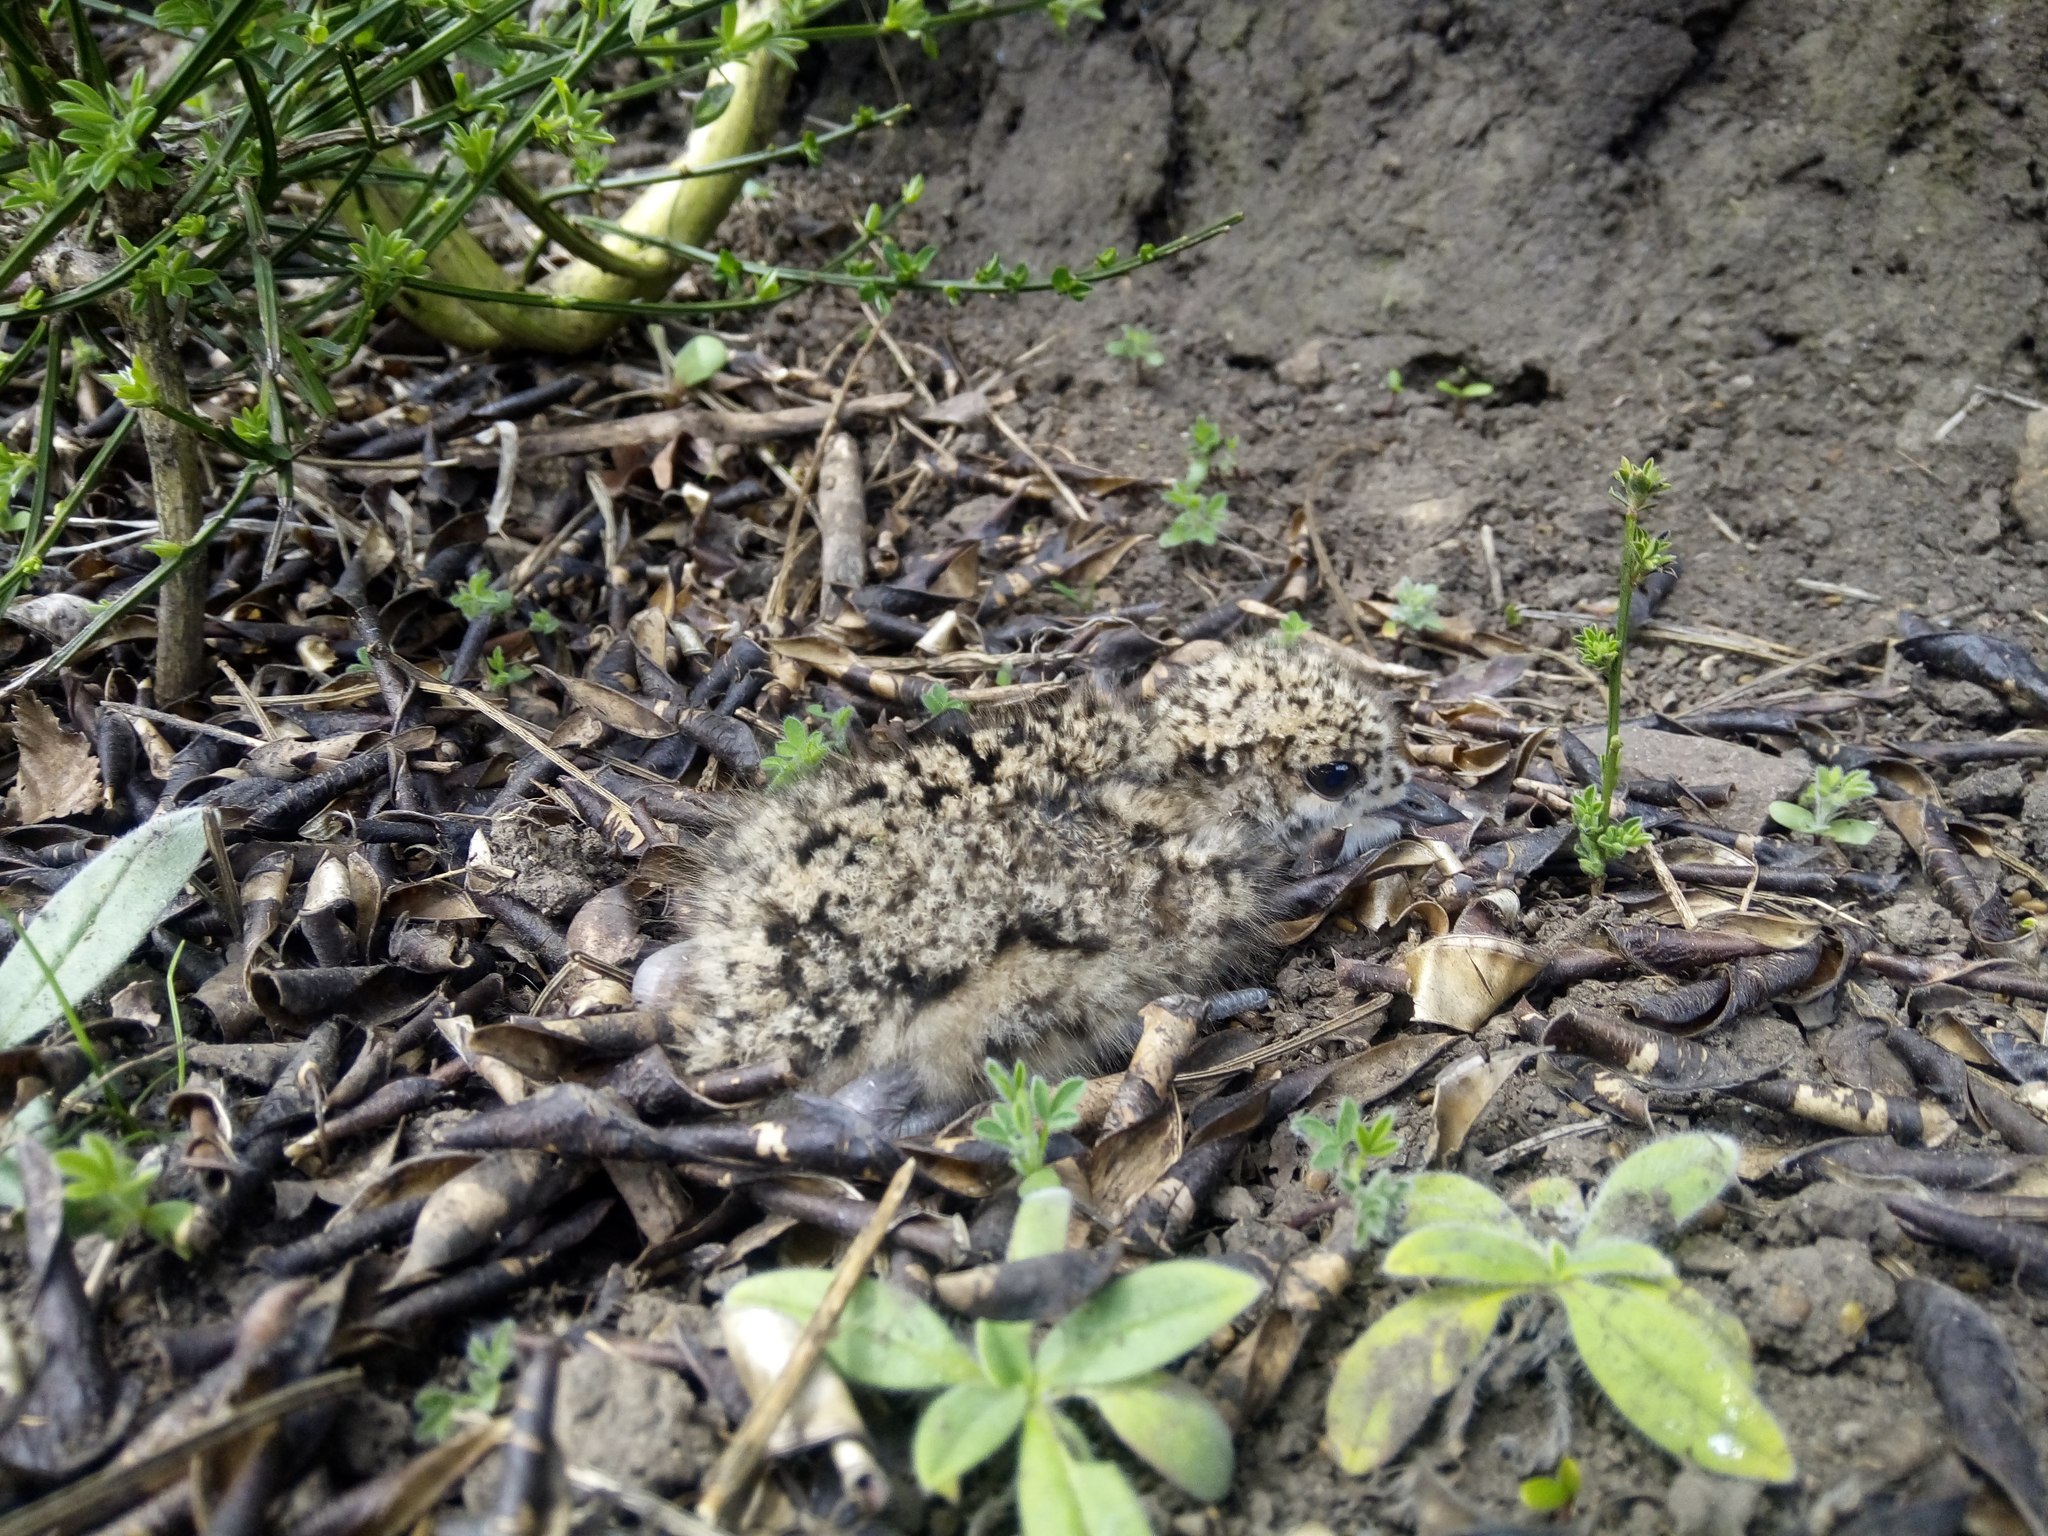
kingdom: Animalia
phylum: Chordata
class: Aves
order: Charadriiformes
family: Charadriidae
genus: Vanellus
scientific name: Vanellus chilensis
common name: Southern lapwing
